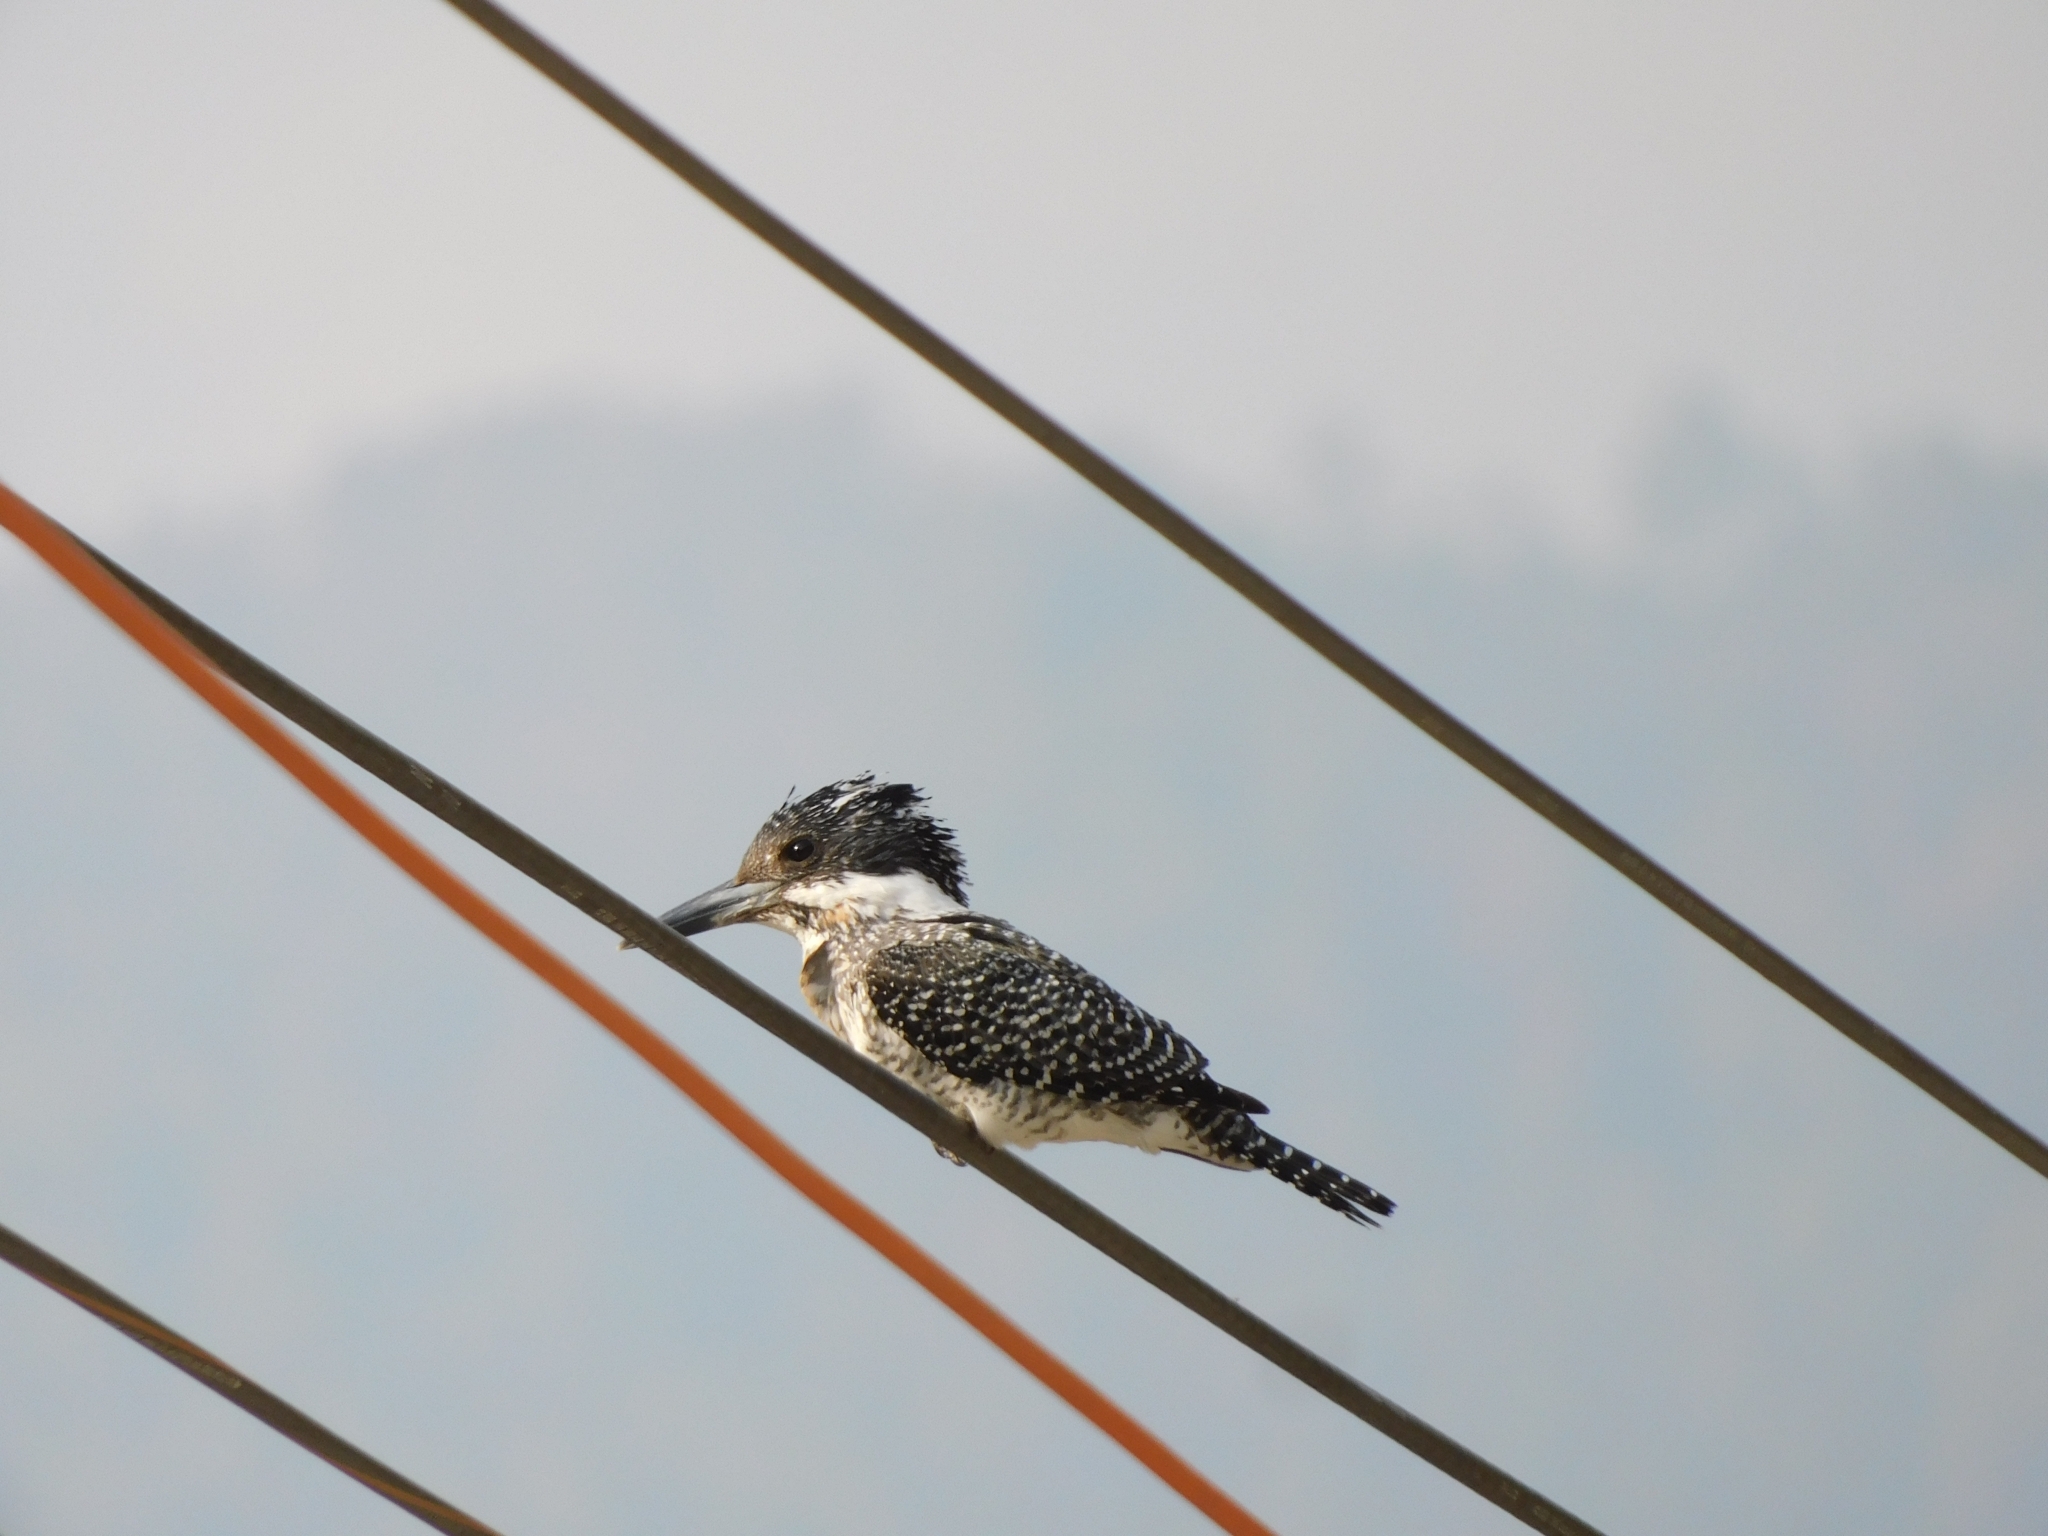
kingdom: Animalia
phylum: Chordata
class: Aves
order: Coraciiformes
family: Alcedinidae
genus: Megaceryle
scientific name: Megaceryle lugubris
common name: Crested kingfisher
